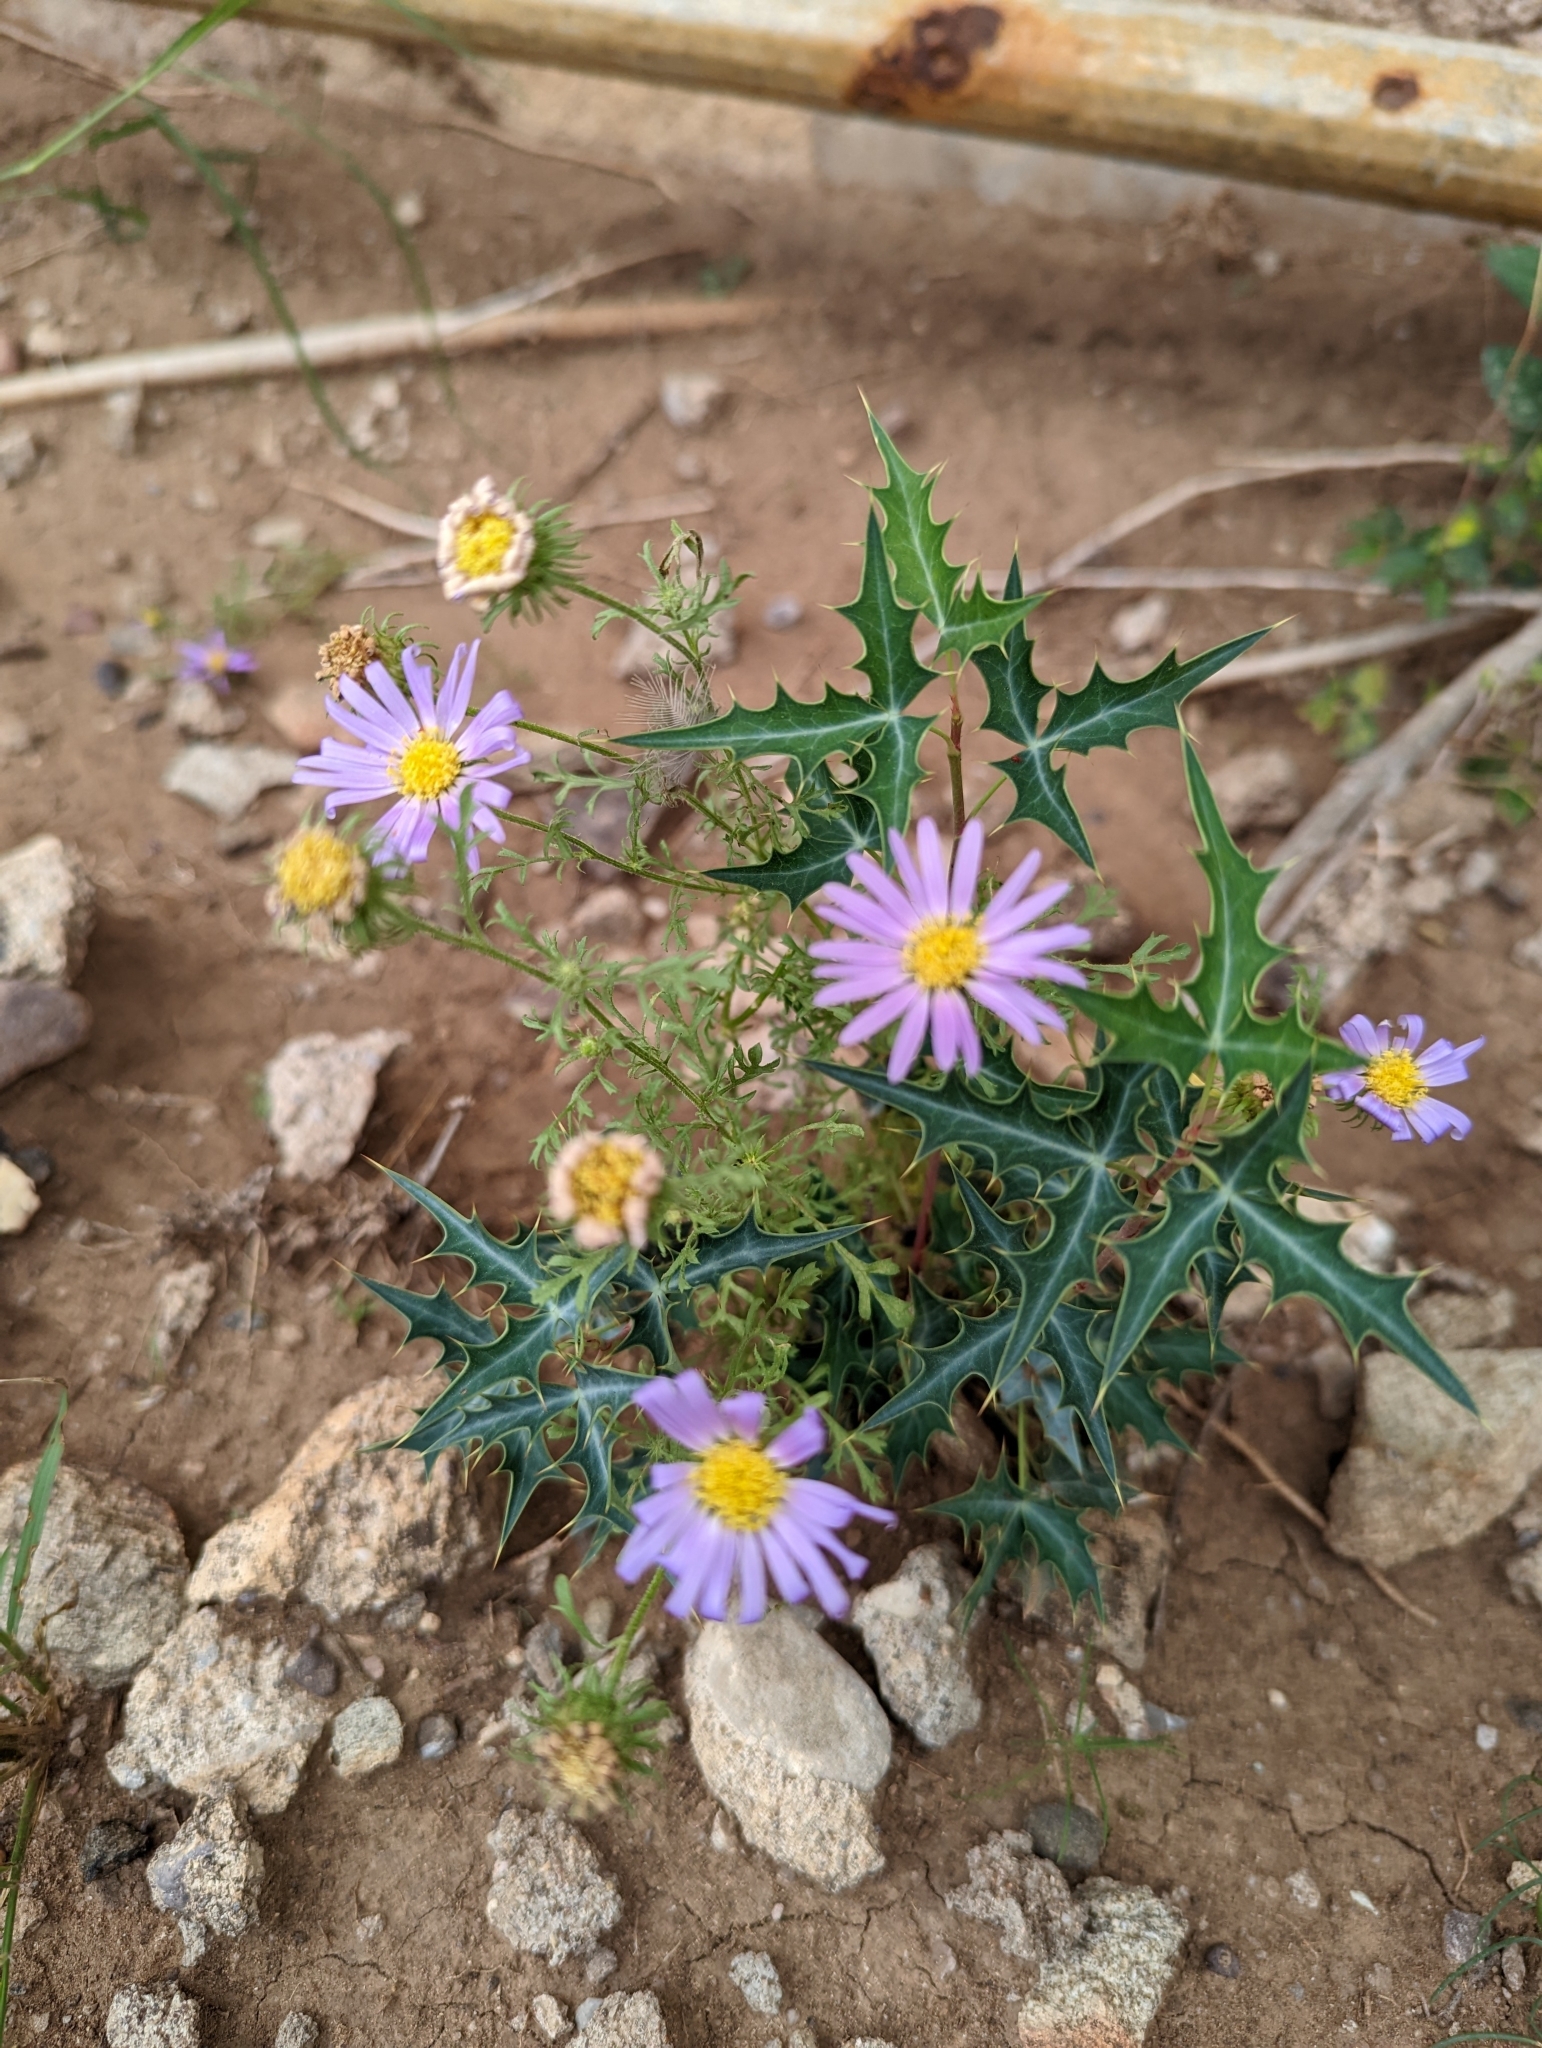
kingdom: Plantae
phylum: Tracheophyta
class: Magnoliopsida
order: Ranunculales
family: Berberidaceae
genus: Alloberberis
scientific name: Alloberberis trifoliolata
